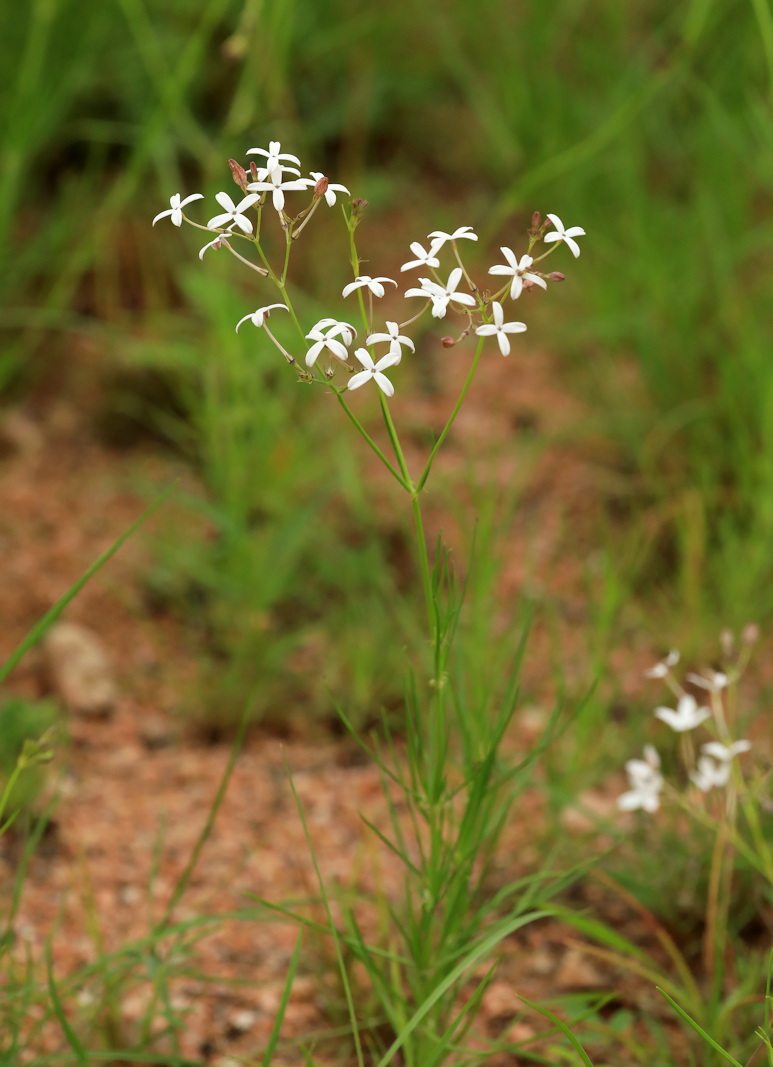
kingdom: Plantae
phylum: Tracheophyta
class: Magnoliopsida
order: Gentianales
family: Rubiaceae
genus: Kohautia
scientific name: Kohautia amatymbica
